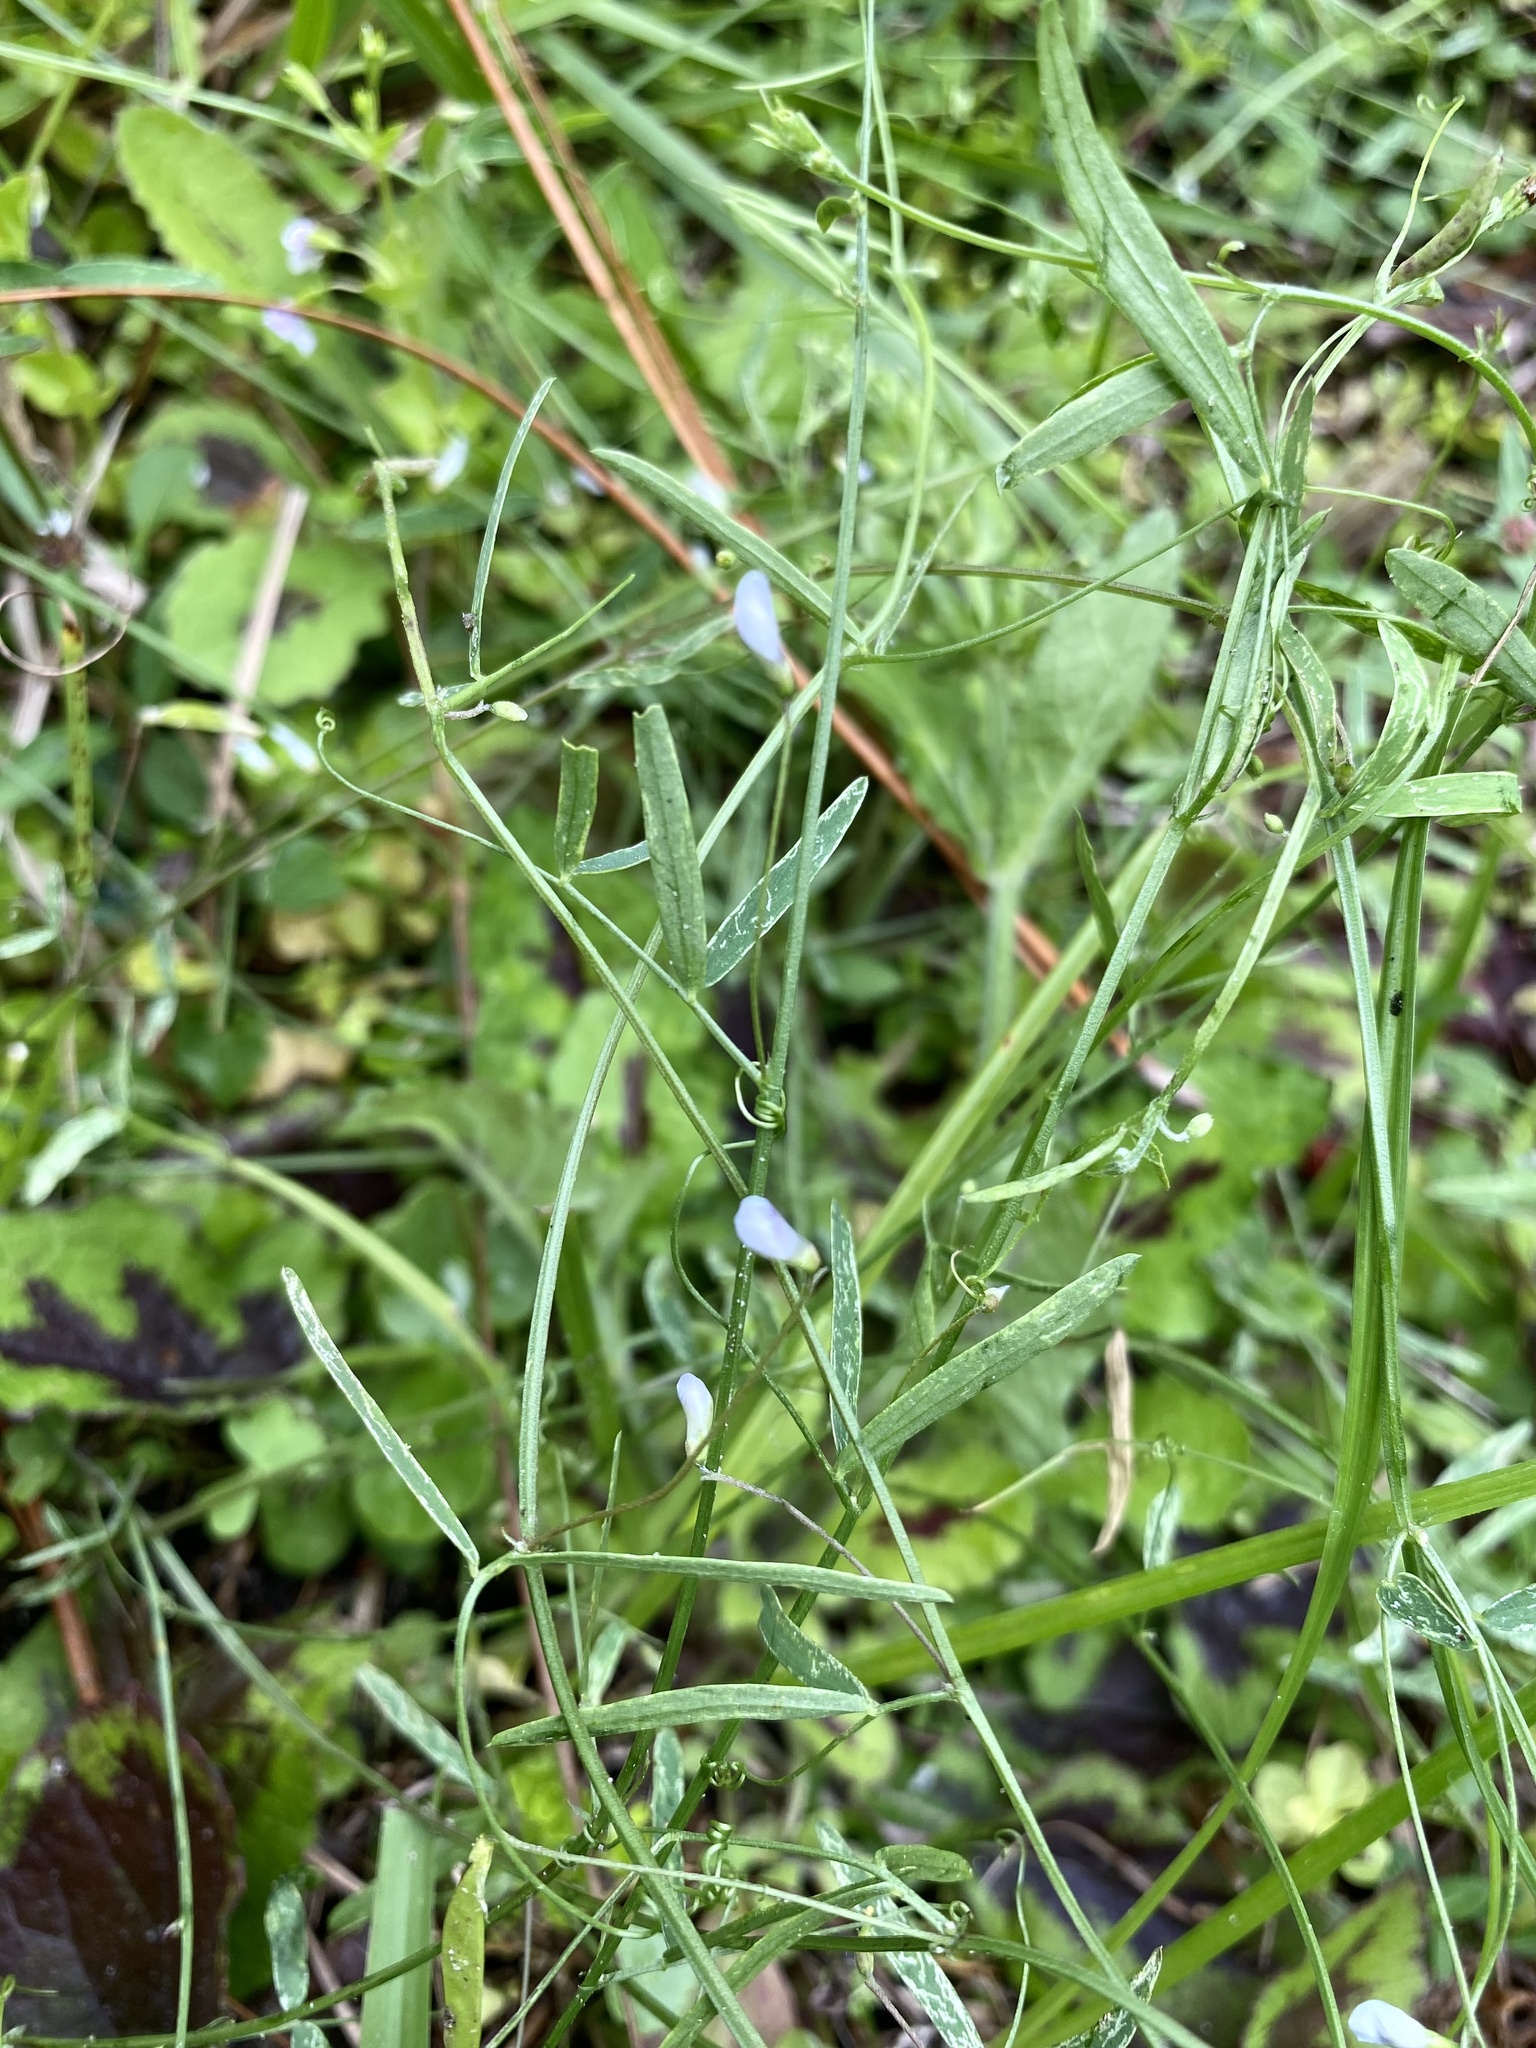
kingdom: Plantae
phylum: Tracheophyta
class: Magnoliopsida
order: Fabales
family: Fabaceae
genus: Vicia
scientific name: Vicia acutifolia
